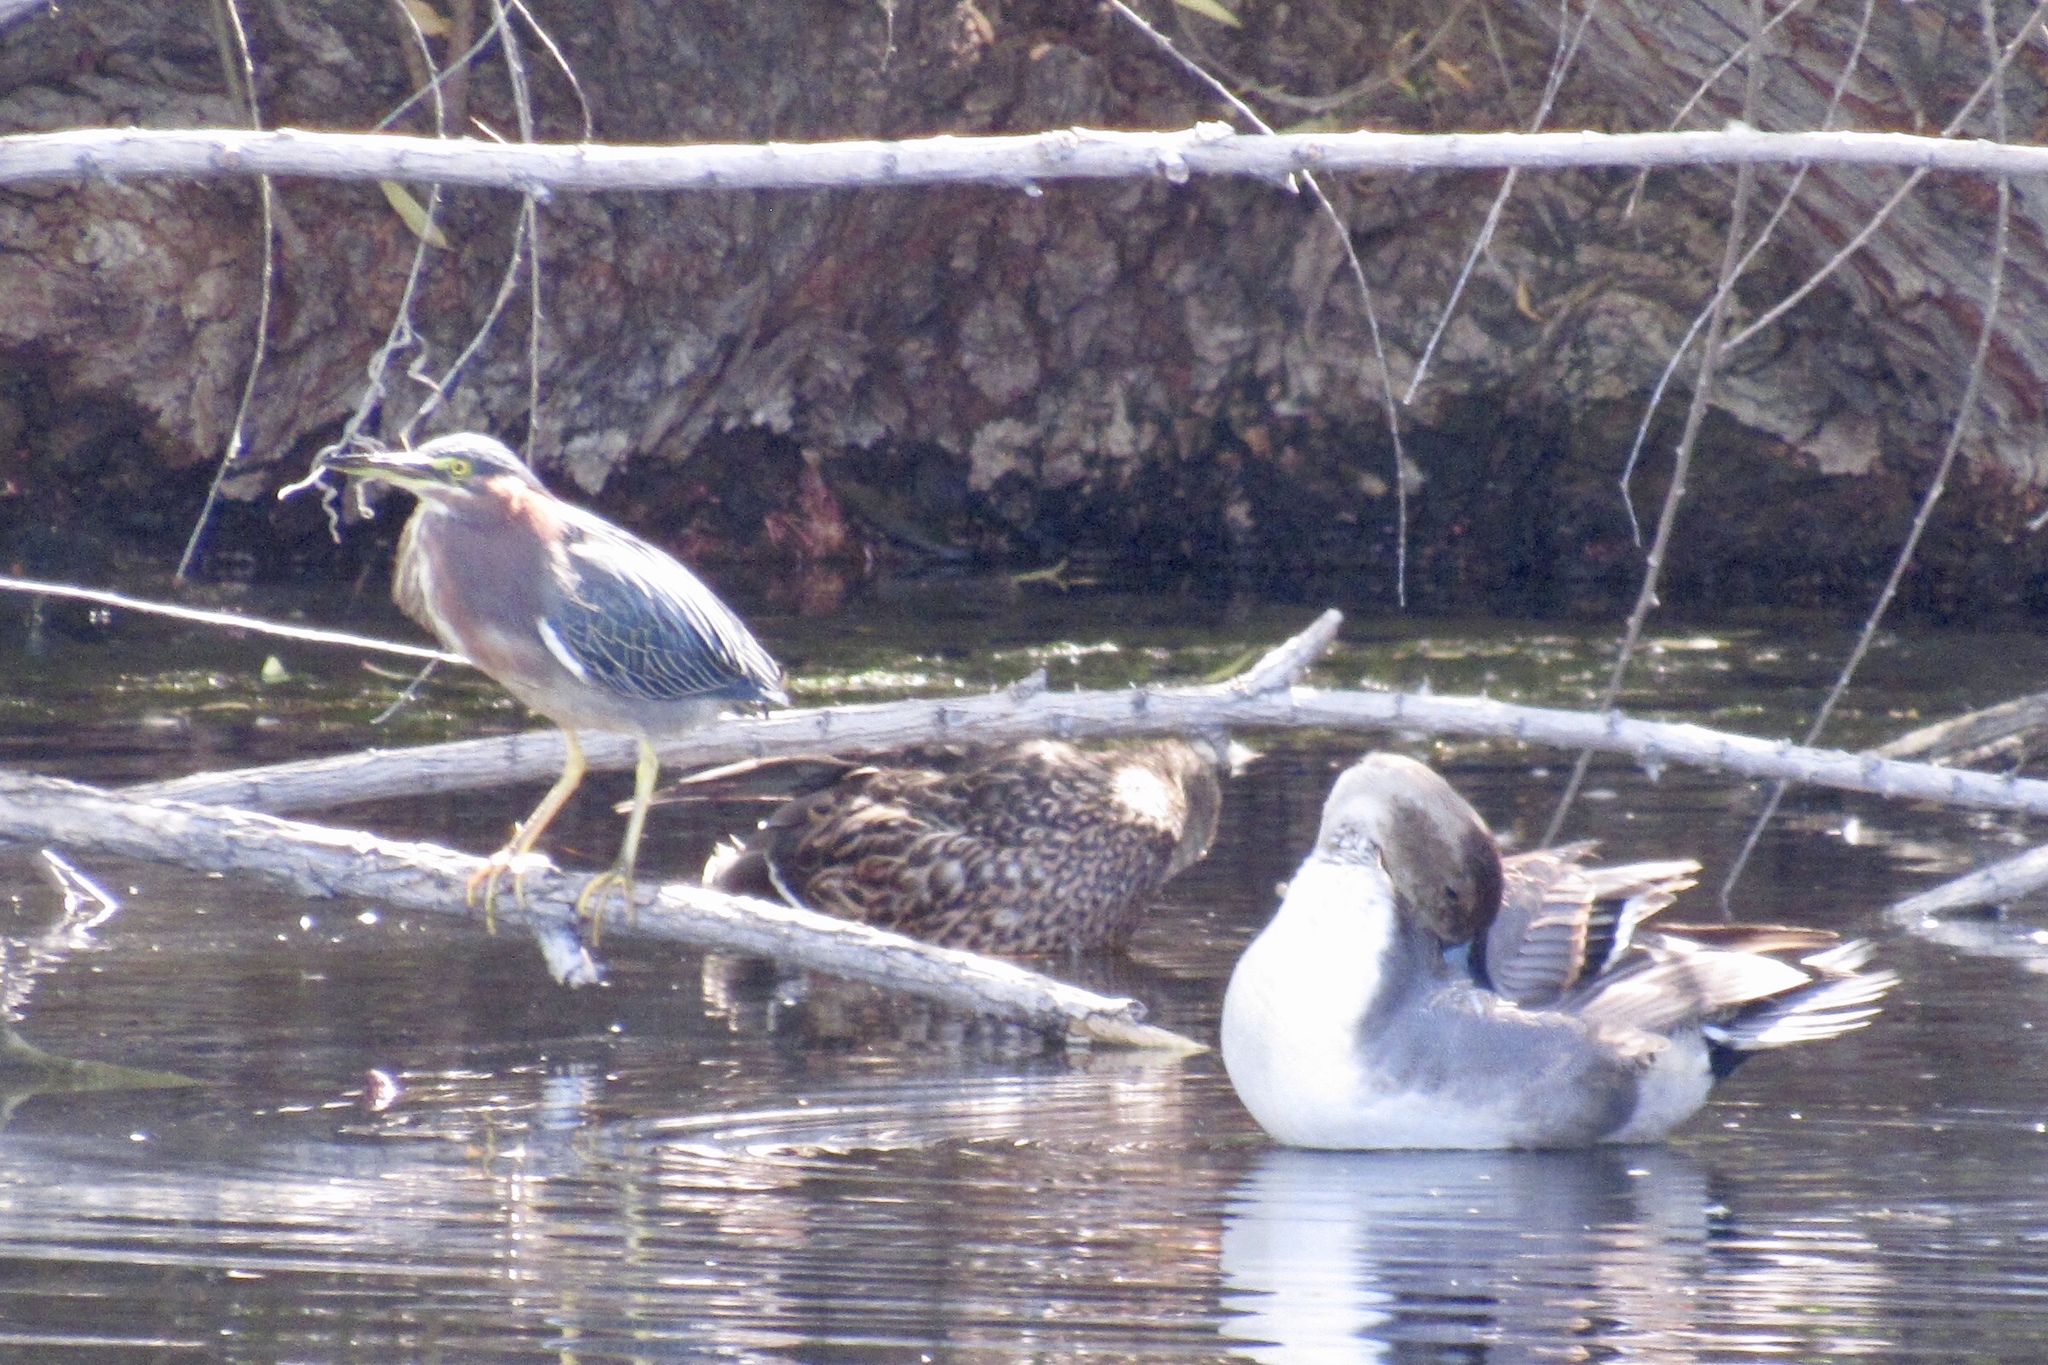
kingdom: Animalia
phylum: Chordata
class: Aves
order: Anseriformes
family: Anatidae
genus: Anas
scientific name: Anas acuta
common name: Northern pintail
